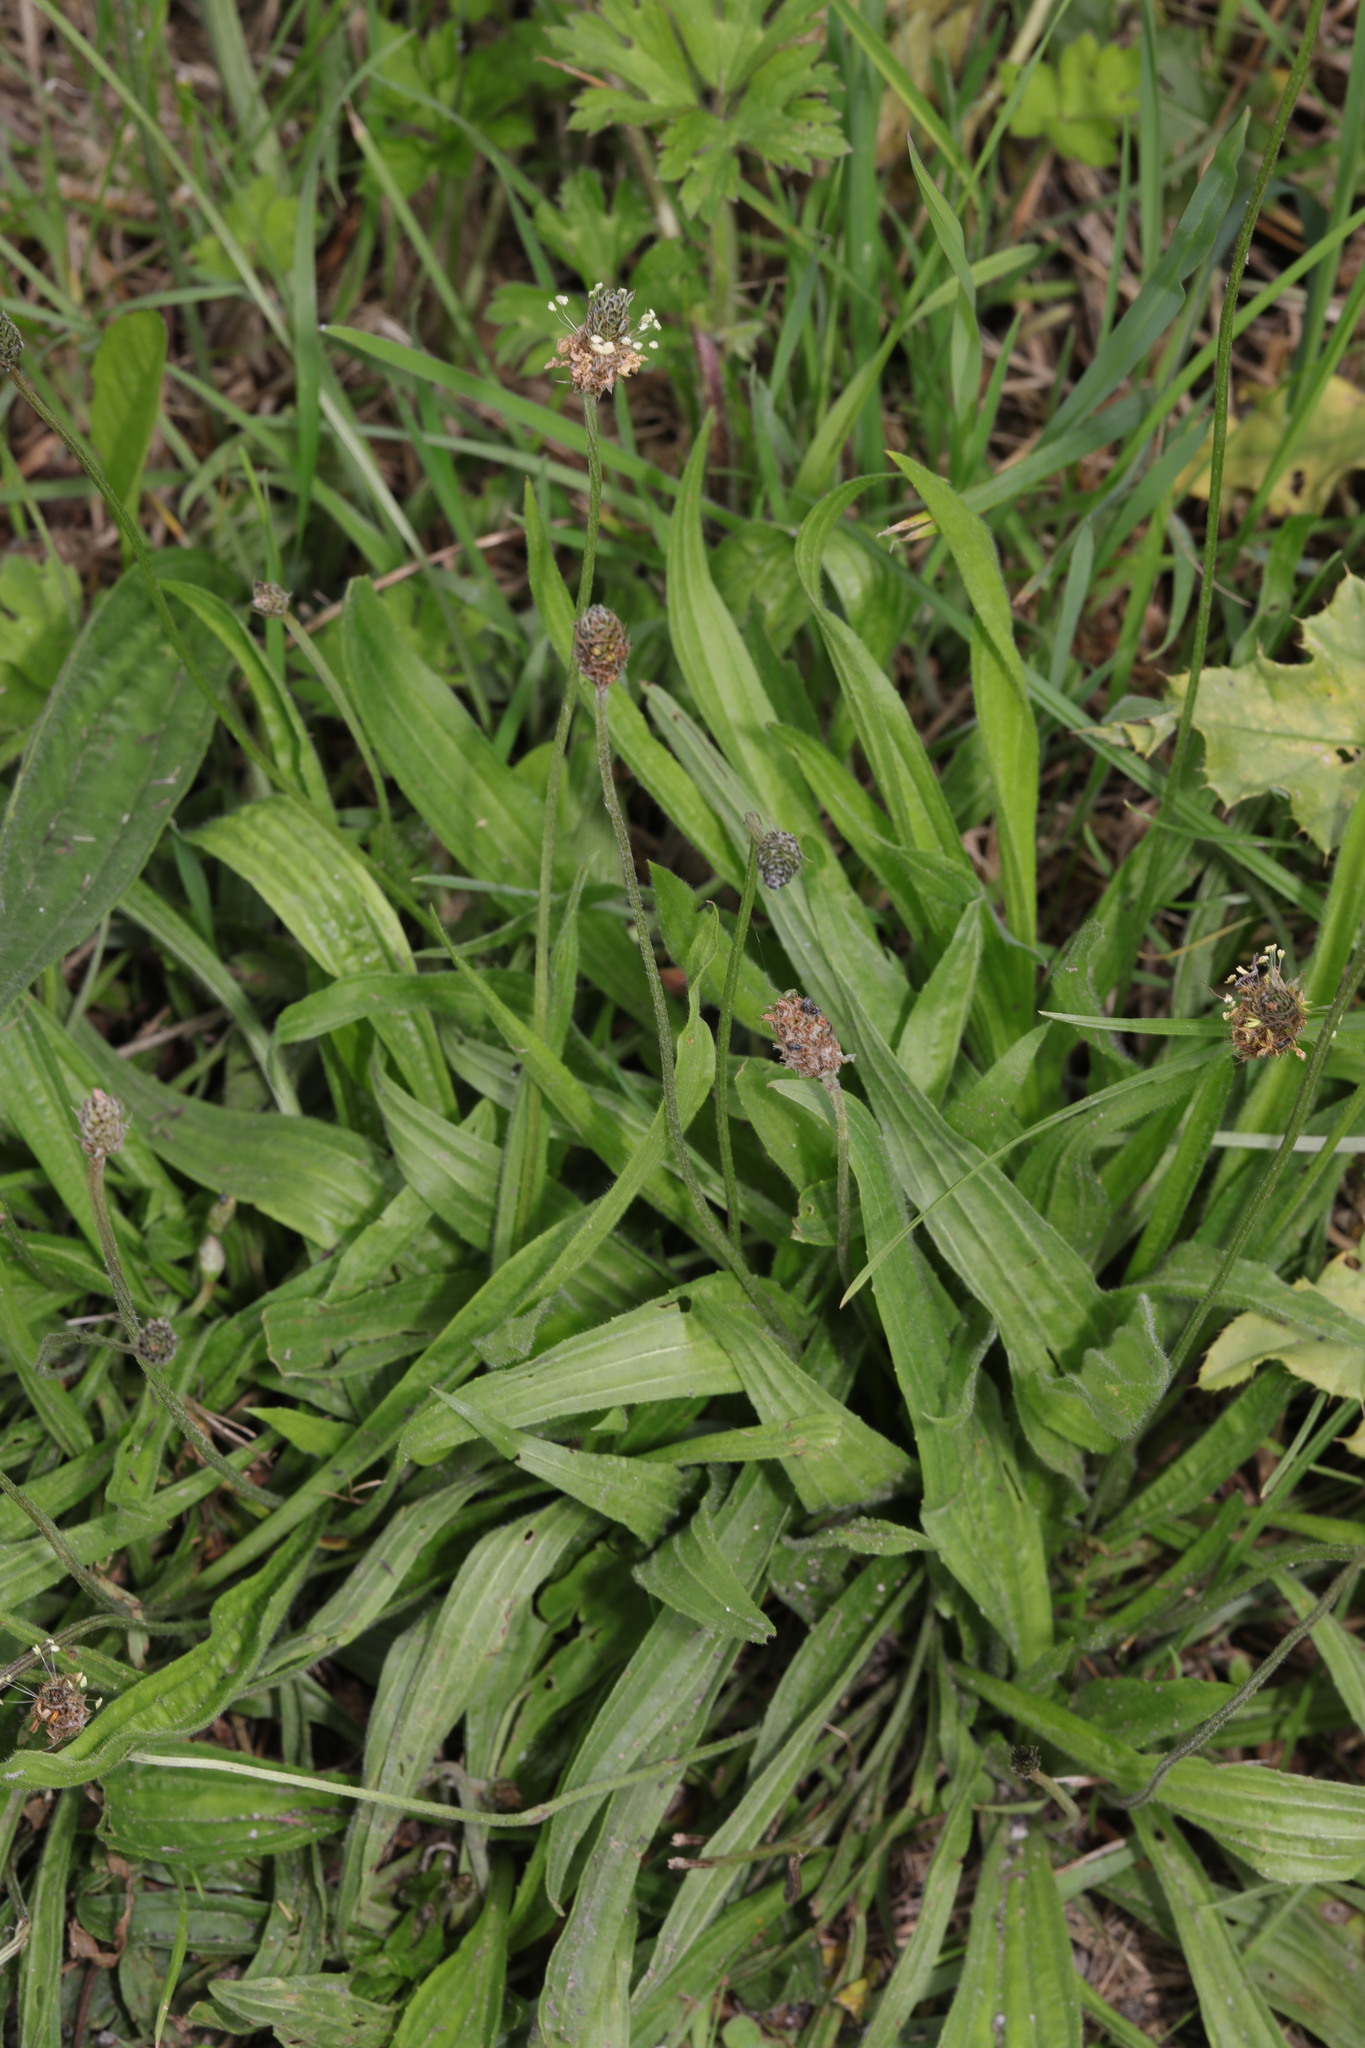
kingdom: Plantae
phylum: Tracheophyta
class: Magnoliopsida
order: Lamiales
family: Plantaginaceae
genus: Plantago
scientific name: Plantago lanceolata
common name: Ribwort plantain
